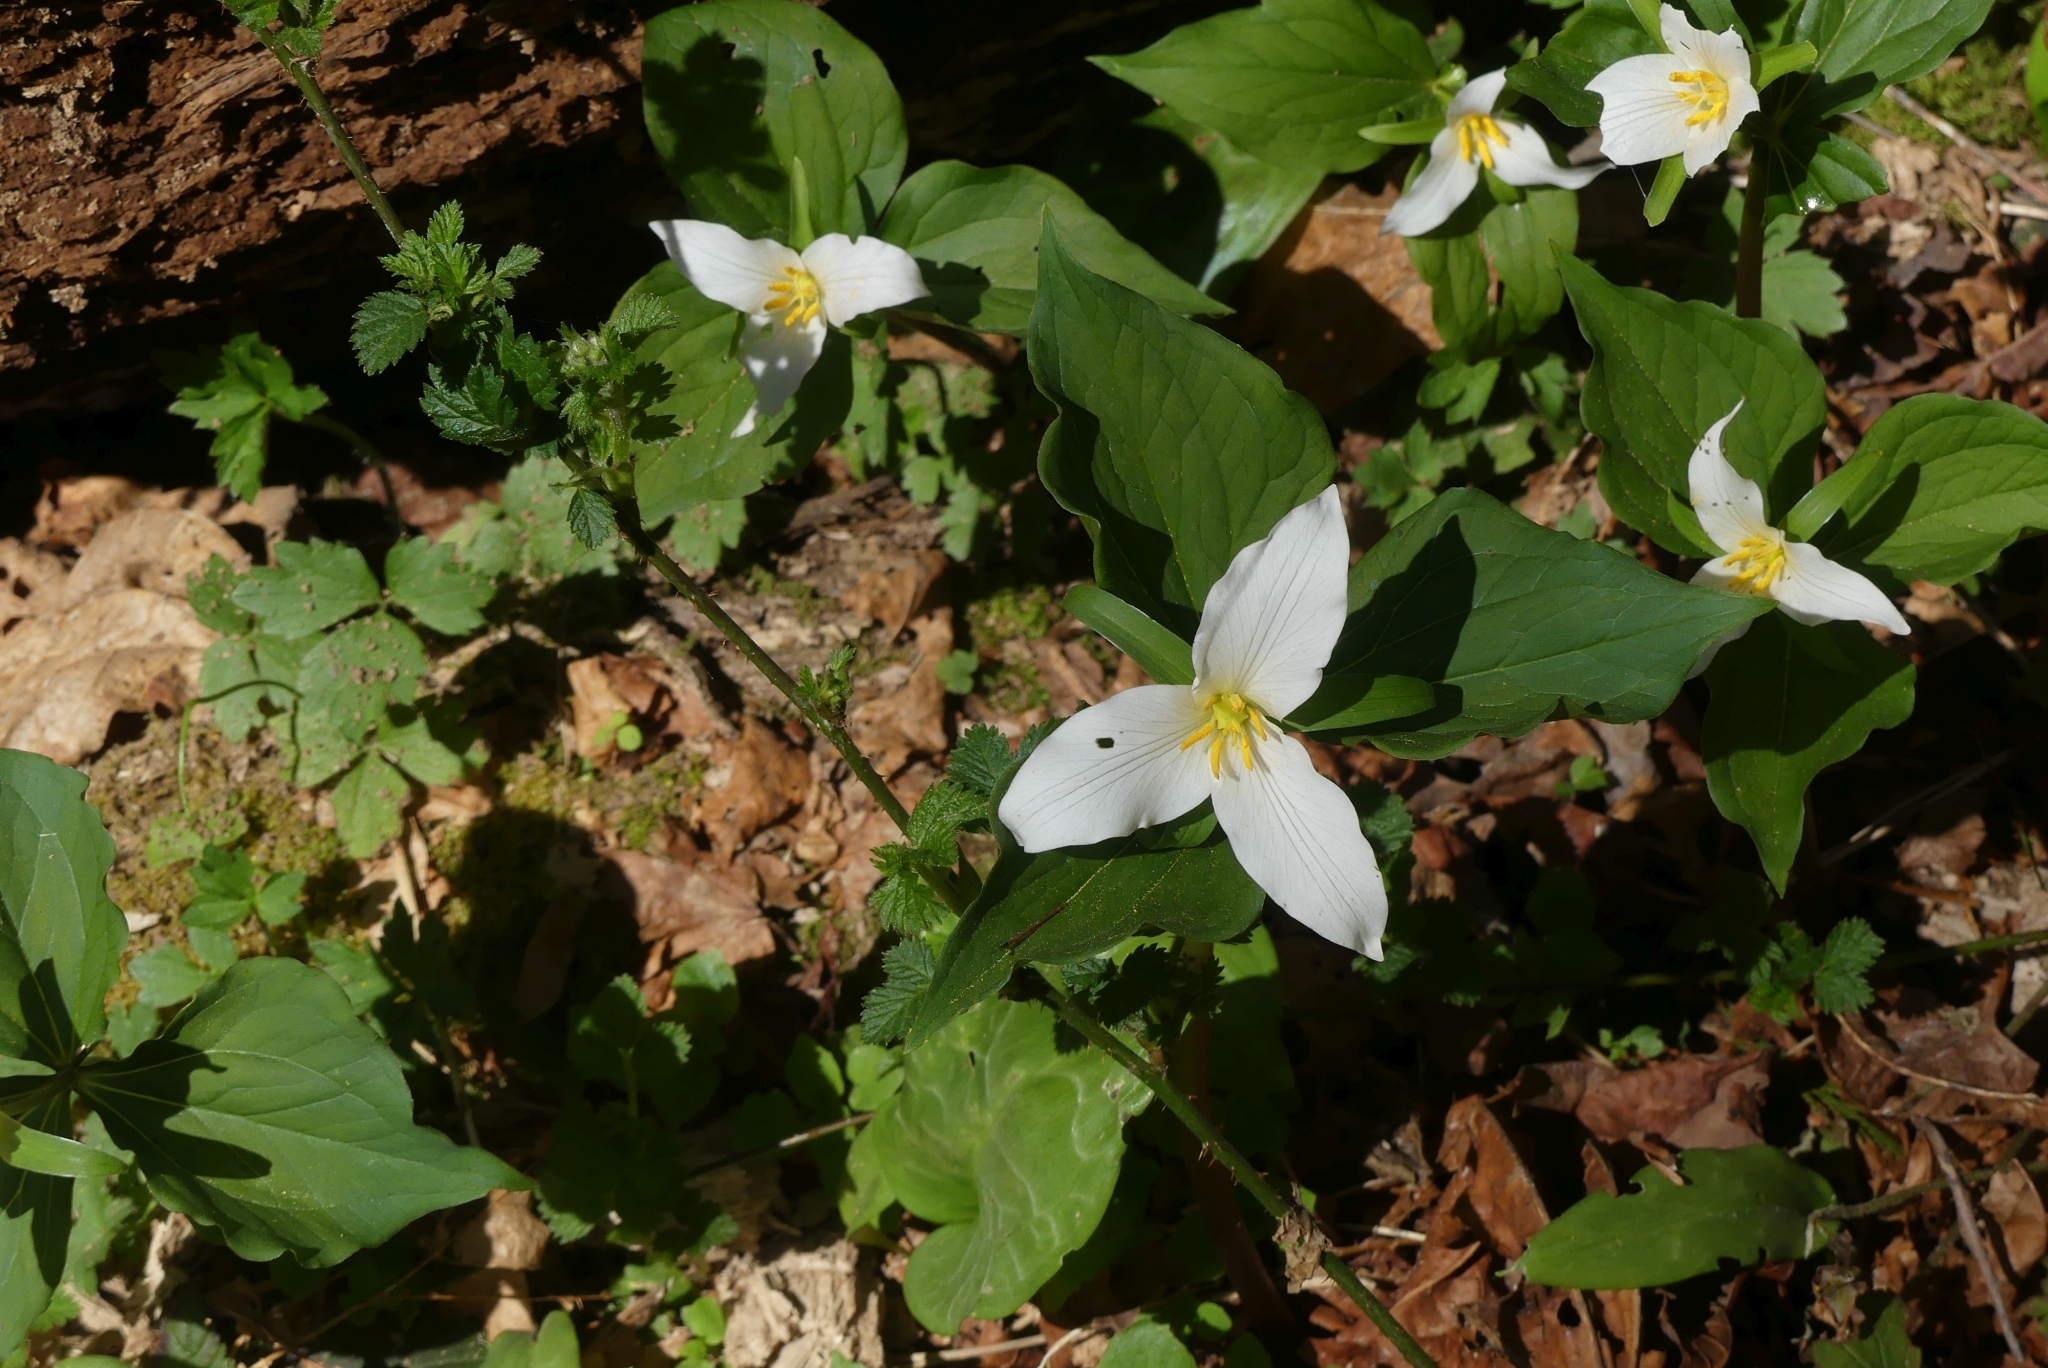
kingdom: Plantae
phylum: Tracheophyta
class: Liliopsida
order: Liliales
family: Melanthiaceae
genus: Trillium
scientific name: Trillium ovatum
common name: Pacific trillium
